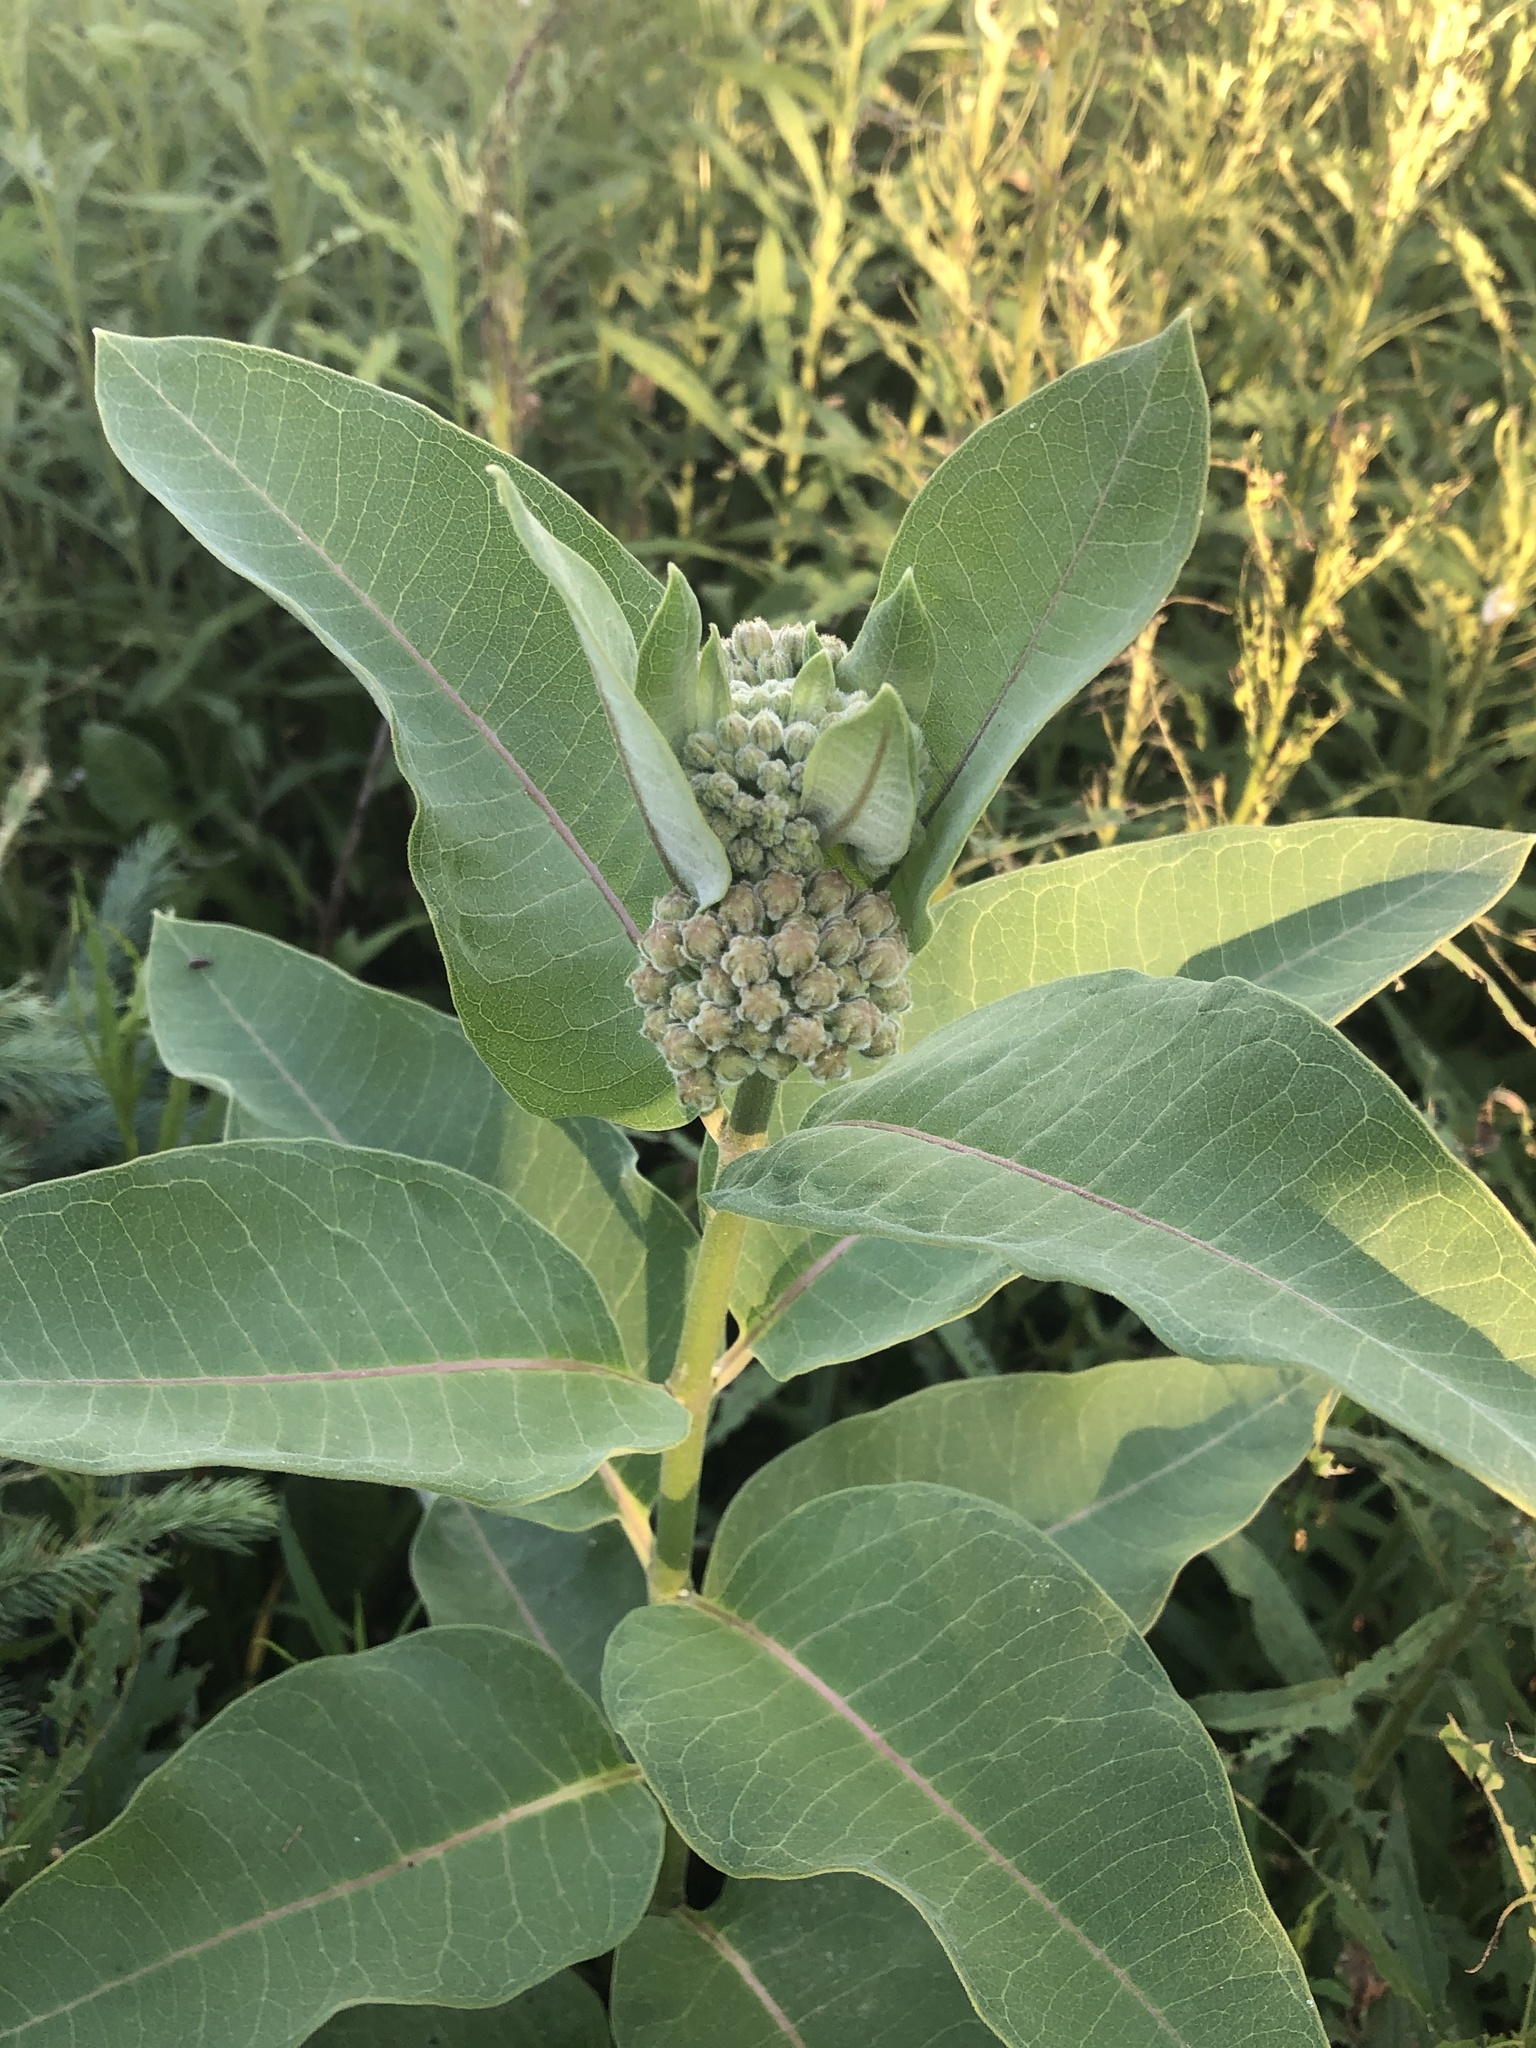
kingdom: Plantae
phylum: Tracheophyta
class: Magnoliopsida
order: Gentianales
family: Apocynaceae
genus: Asclepias
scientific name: Asclepias syriaca
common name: Common milkweed
